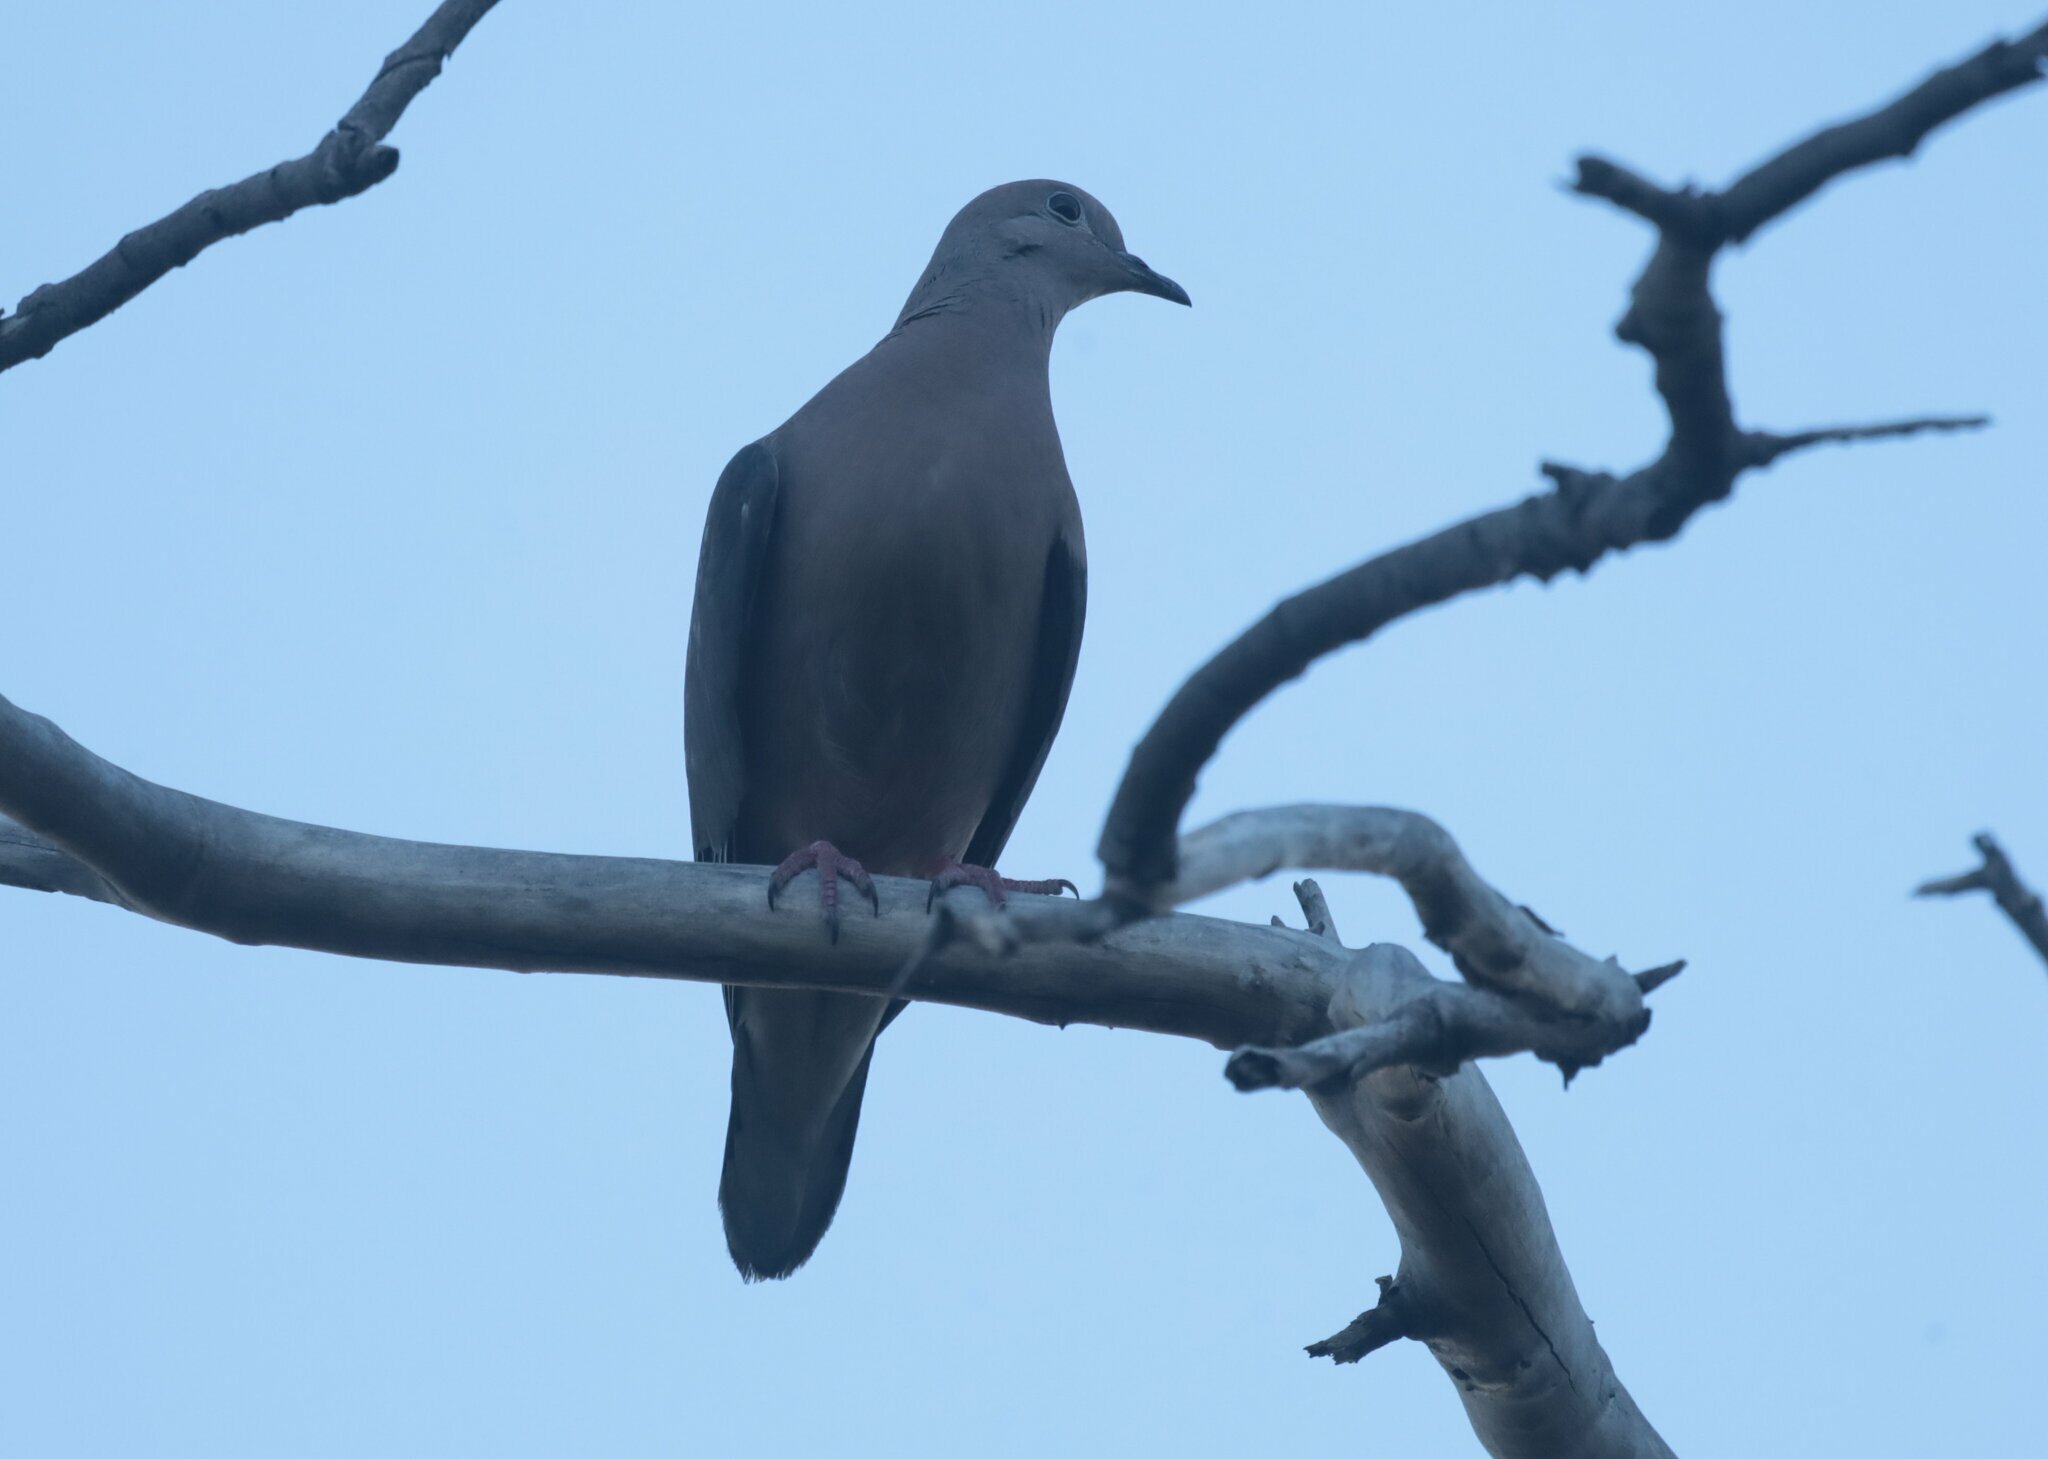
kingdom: Animalia
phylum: Chordata
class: Aves
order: Columbiformes
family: Columbidae
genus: Zenaida
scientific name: Zenaida auriculata
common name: Eared dove
